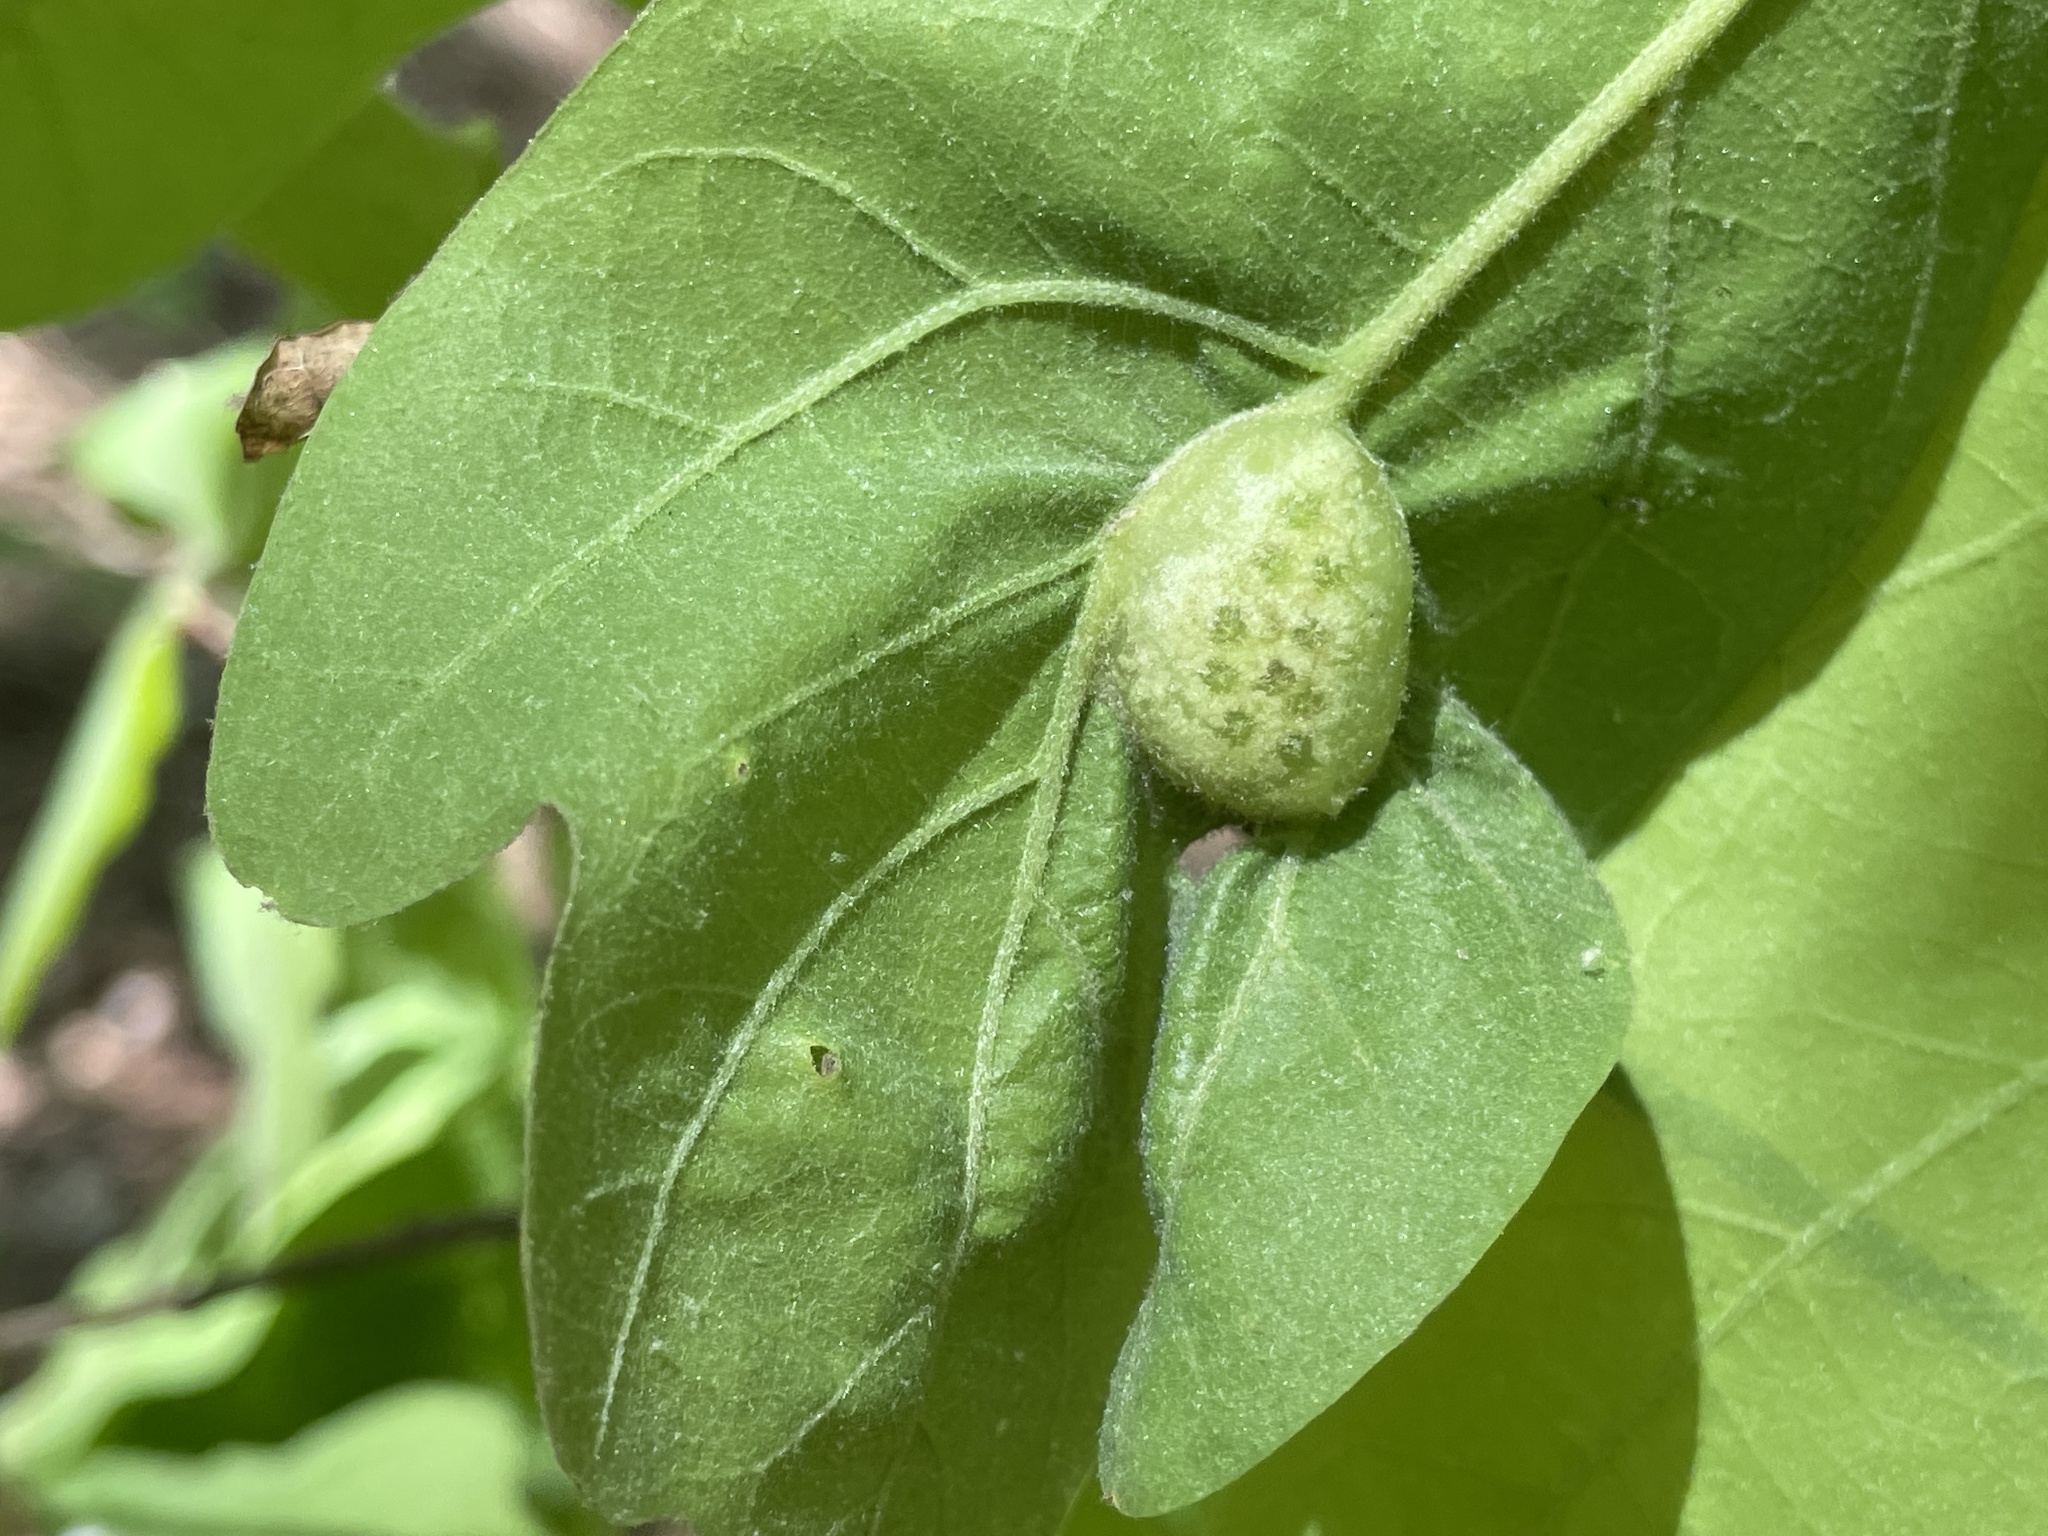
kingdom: Animalia
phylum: Arthropoda
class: Insecta
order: Hymenoptera
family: Cynipidae
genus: Neuroterus
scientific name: Neuroterus quercusirregularis
